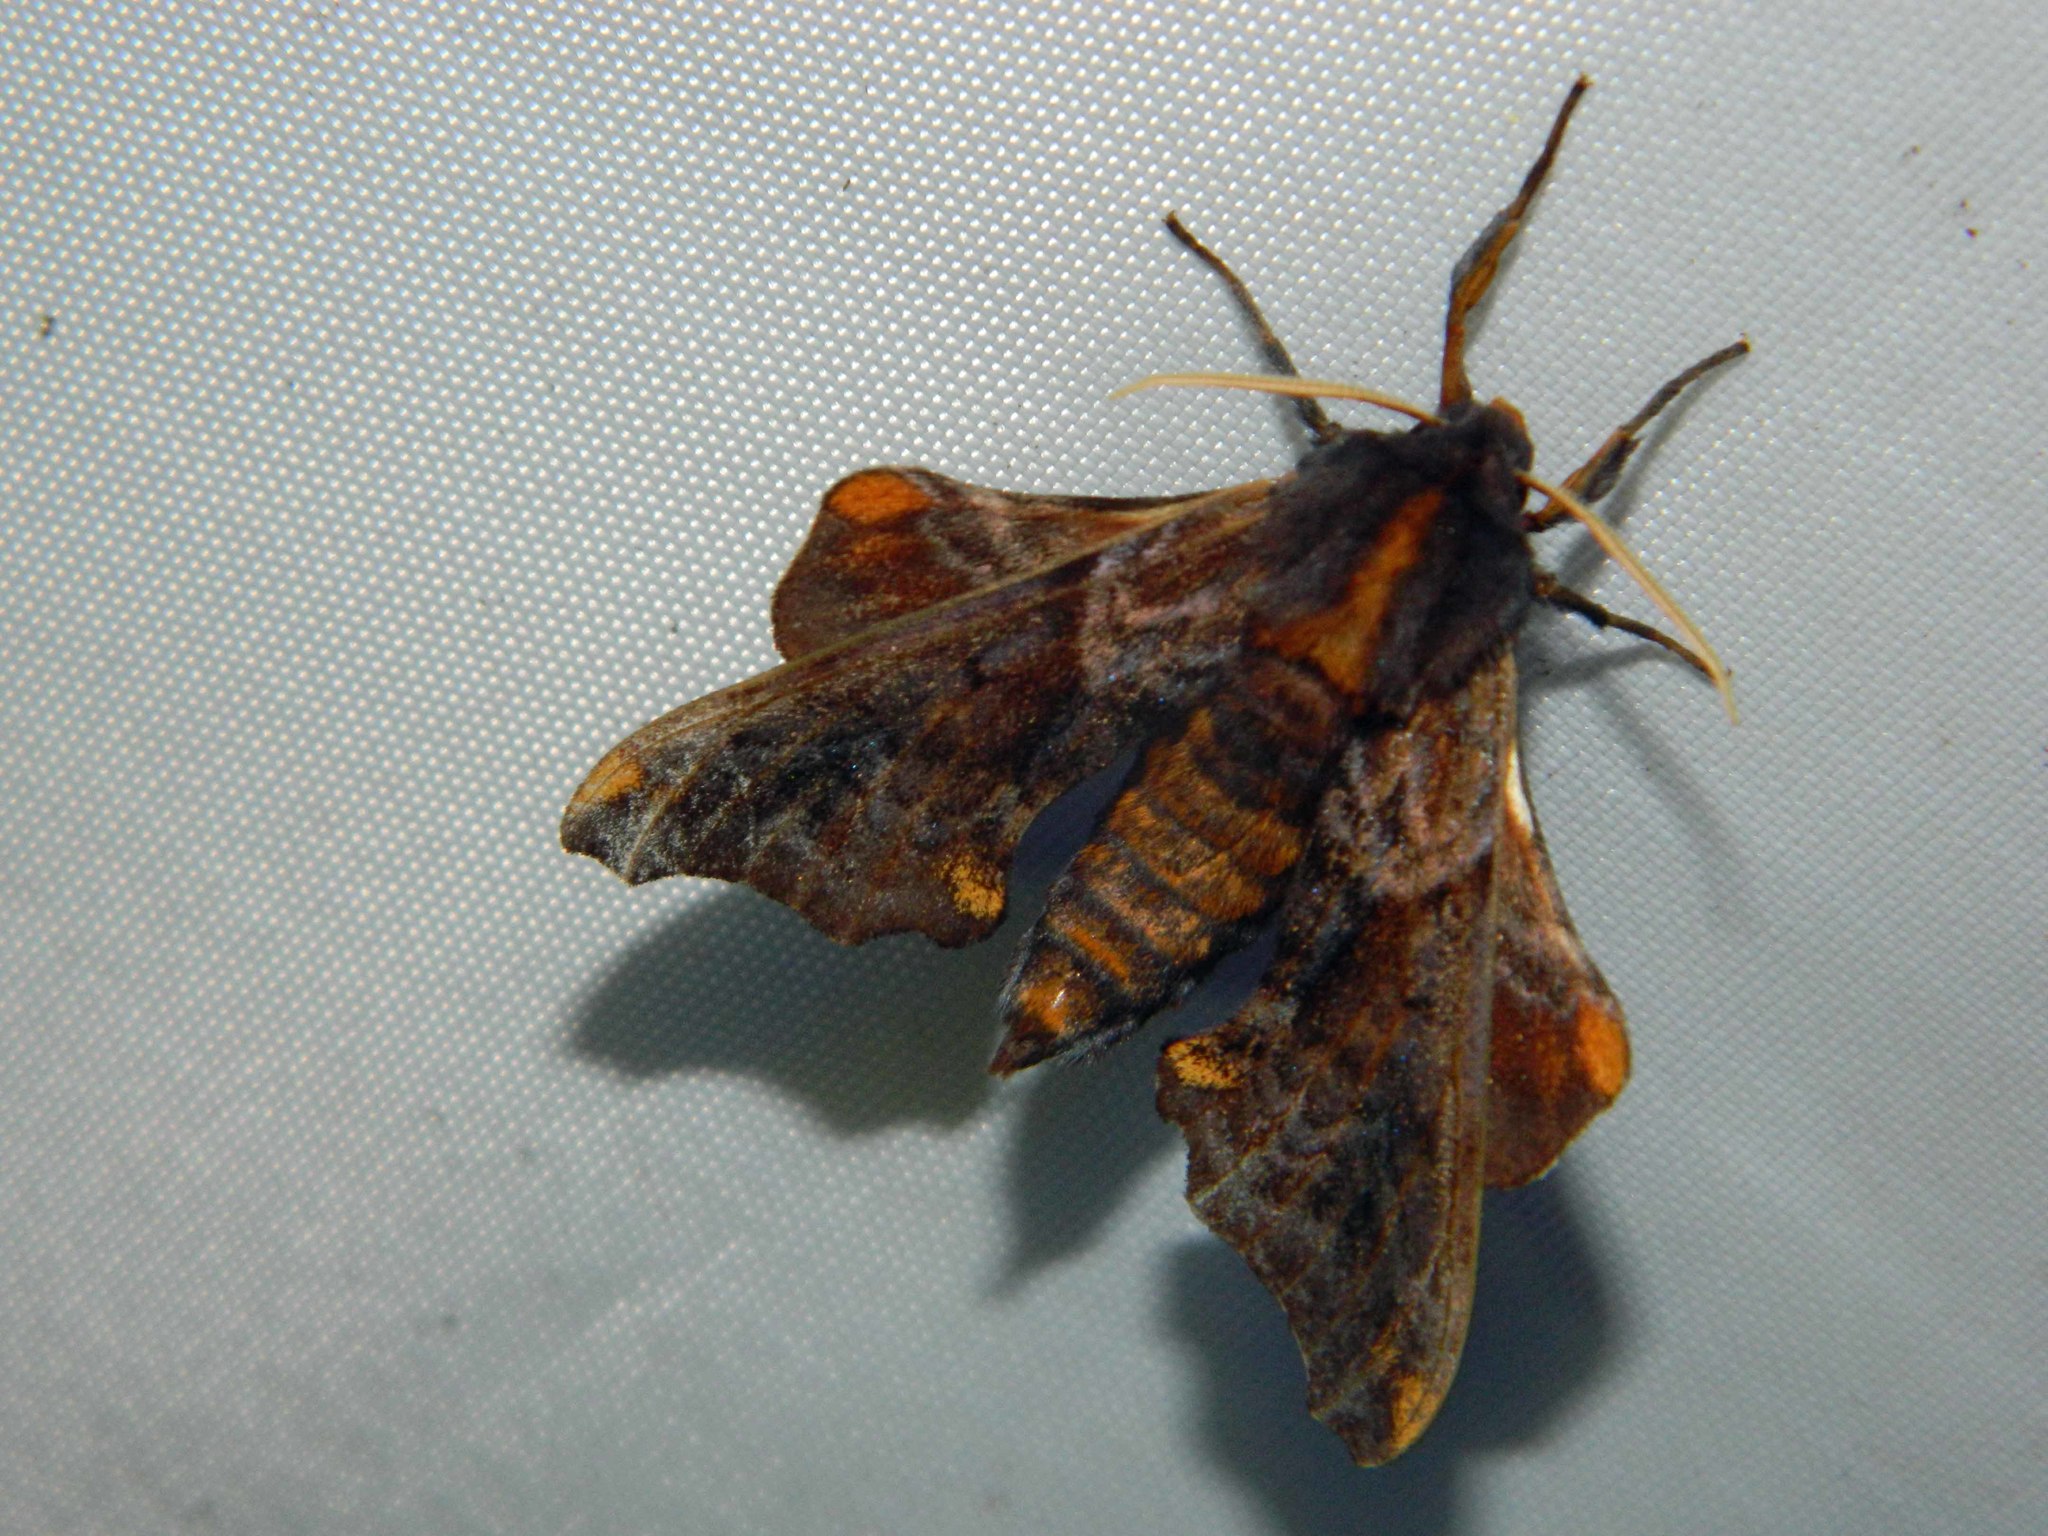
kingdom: Animalia
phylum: Arthropoda
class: Insecta
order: Lepidoptera
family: Sphingidae
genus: Paonias
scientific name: Paonias myops
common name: Small-eyed sphinx
